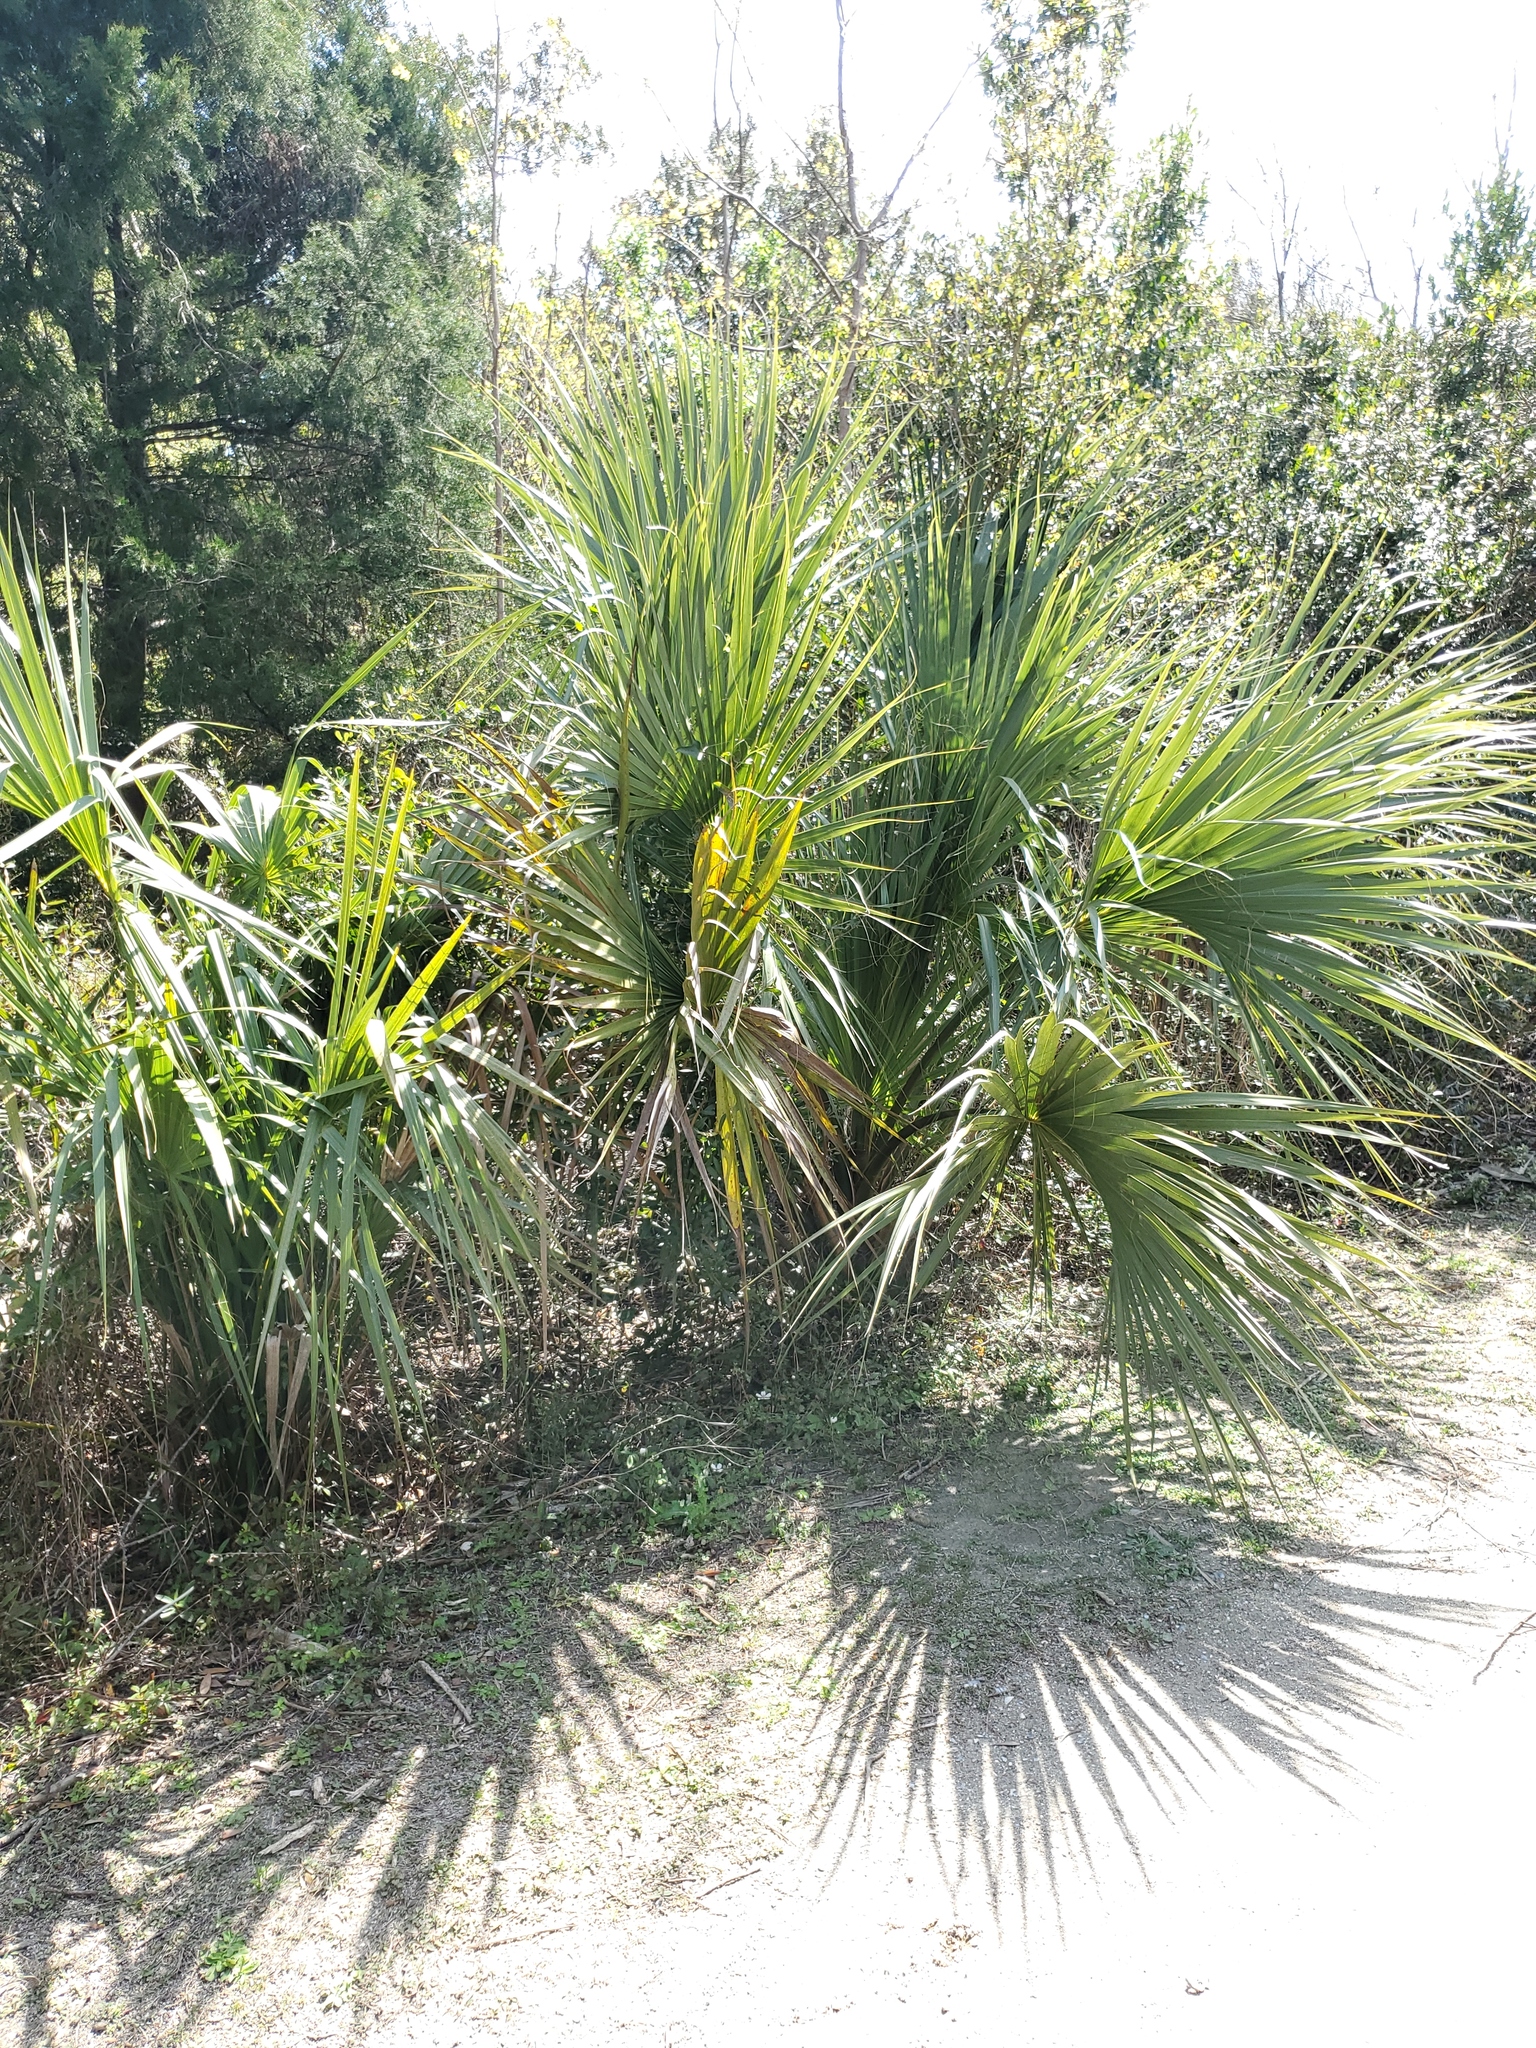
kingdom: Plantae
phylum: Tracheophyta
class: Liliopsida
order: Arecales
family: Arecaceae
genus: Sabal
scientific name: Sabal palmetto
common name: Blue palmetto
